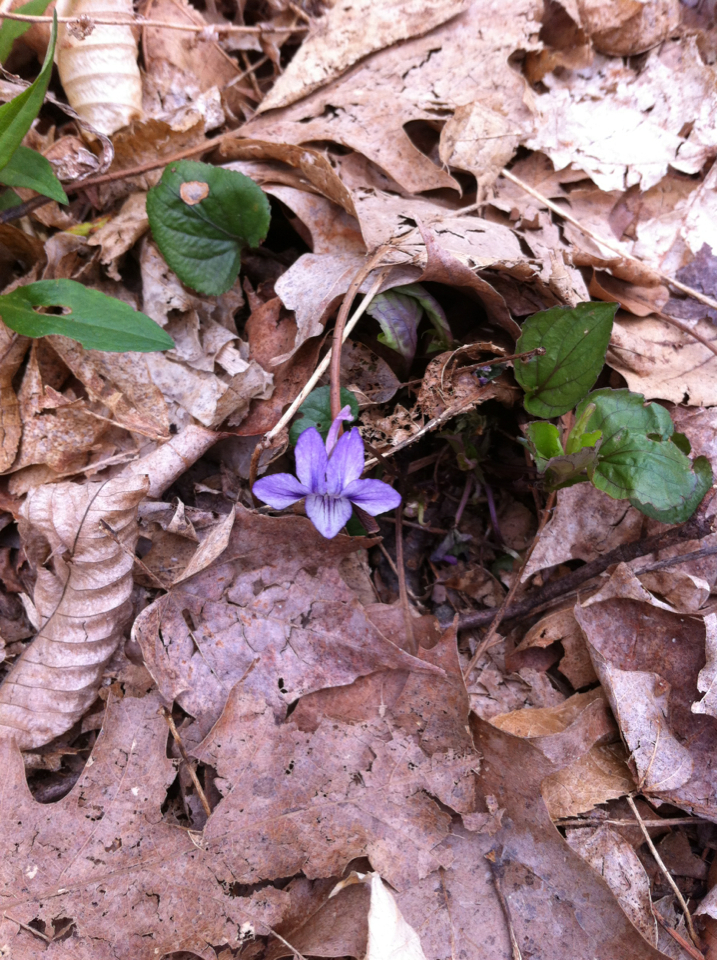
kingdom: Plantae
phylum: Tracheophyta
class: Magnoliopsida
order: Malpighiales
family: Violaceae
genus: Viola
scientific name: Viola sororia
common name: Dooryard violet
